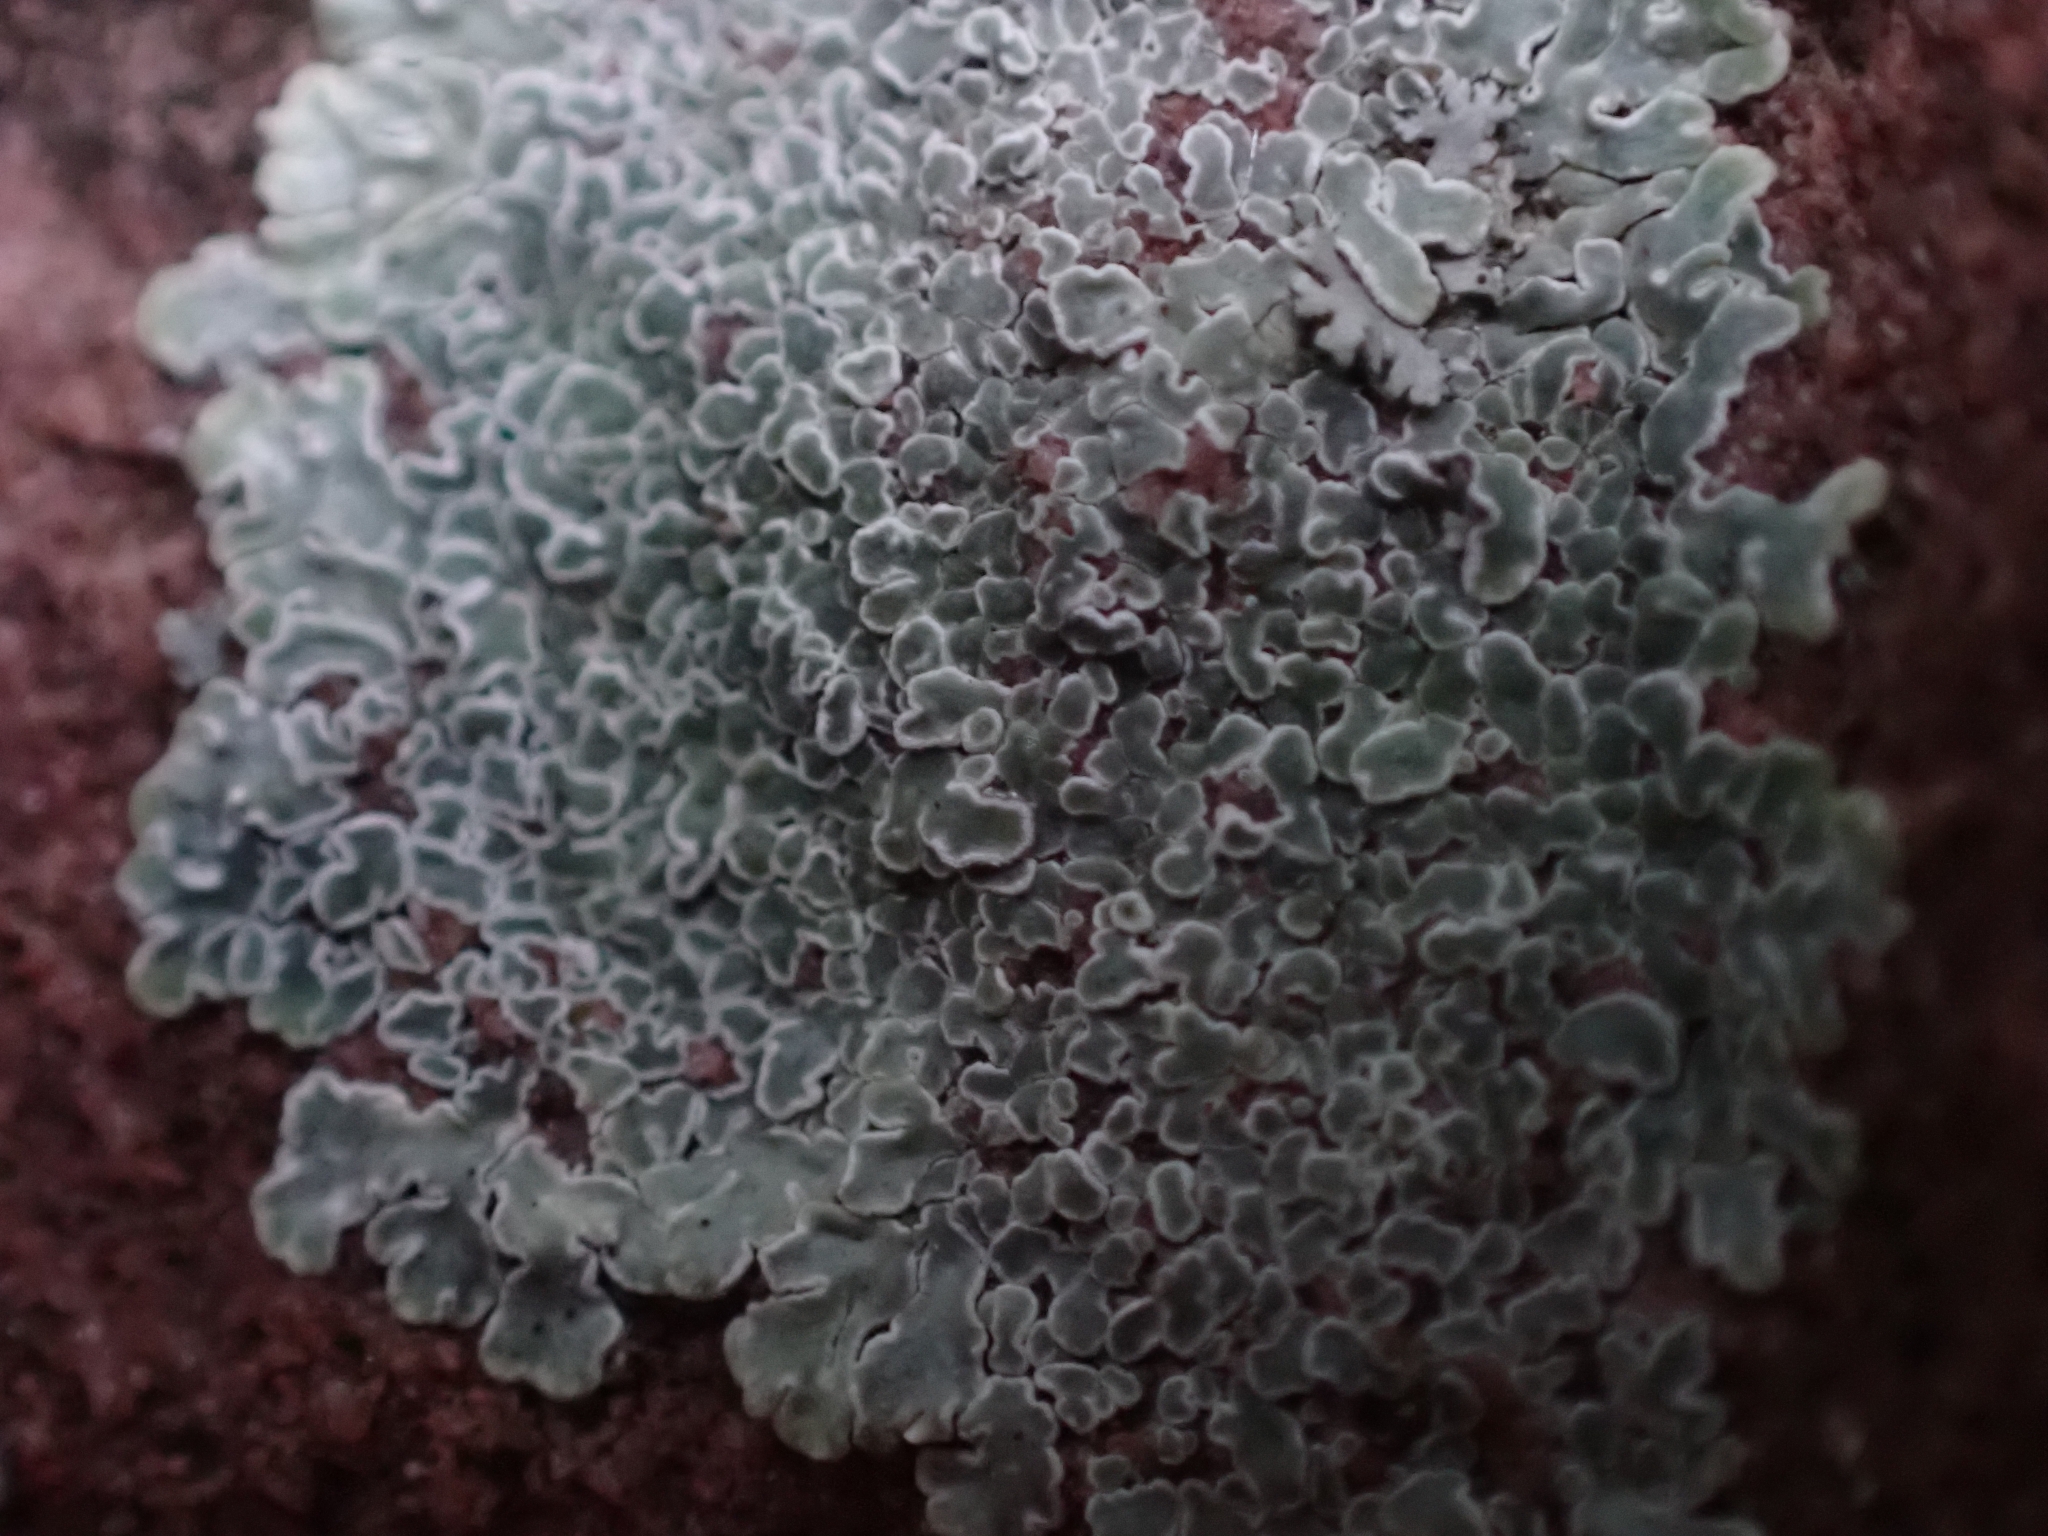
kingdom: Fungi
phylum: Ascomycota
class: Lecanoromycetes
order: Lecanorales
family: Lecanoraceae
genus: Protoparmeliopsis
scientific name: Protoparmeliopsis muralis
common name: Stonewall rim lichen
